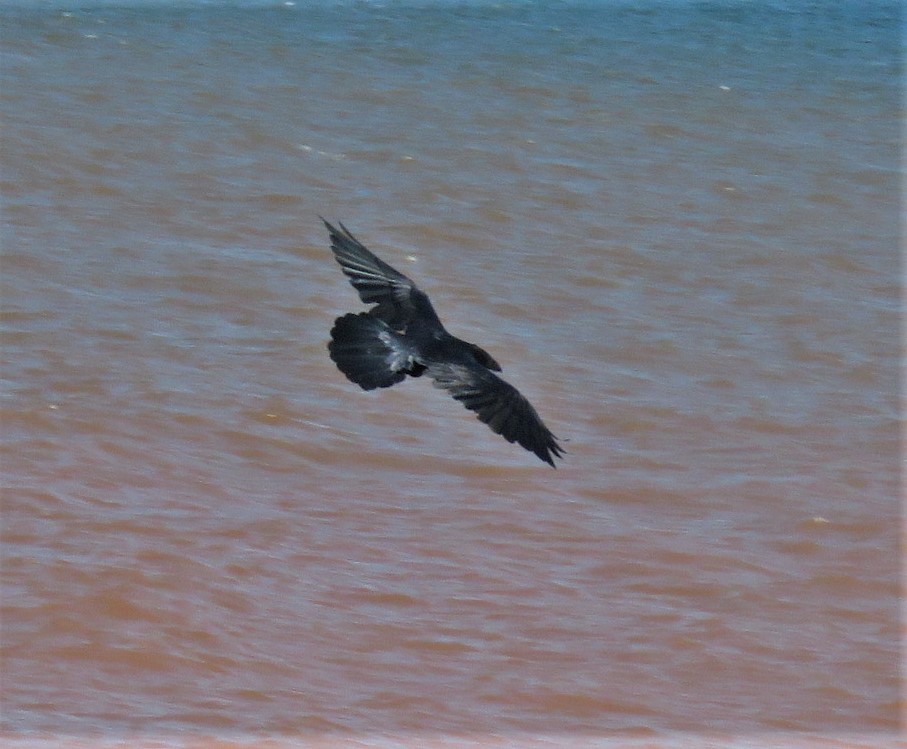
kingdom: Animalia
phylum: Chordata
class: Aves
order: Passeriformes
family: Corvidae
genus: Corvus
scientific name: Corvus corax
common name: Common raven
